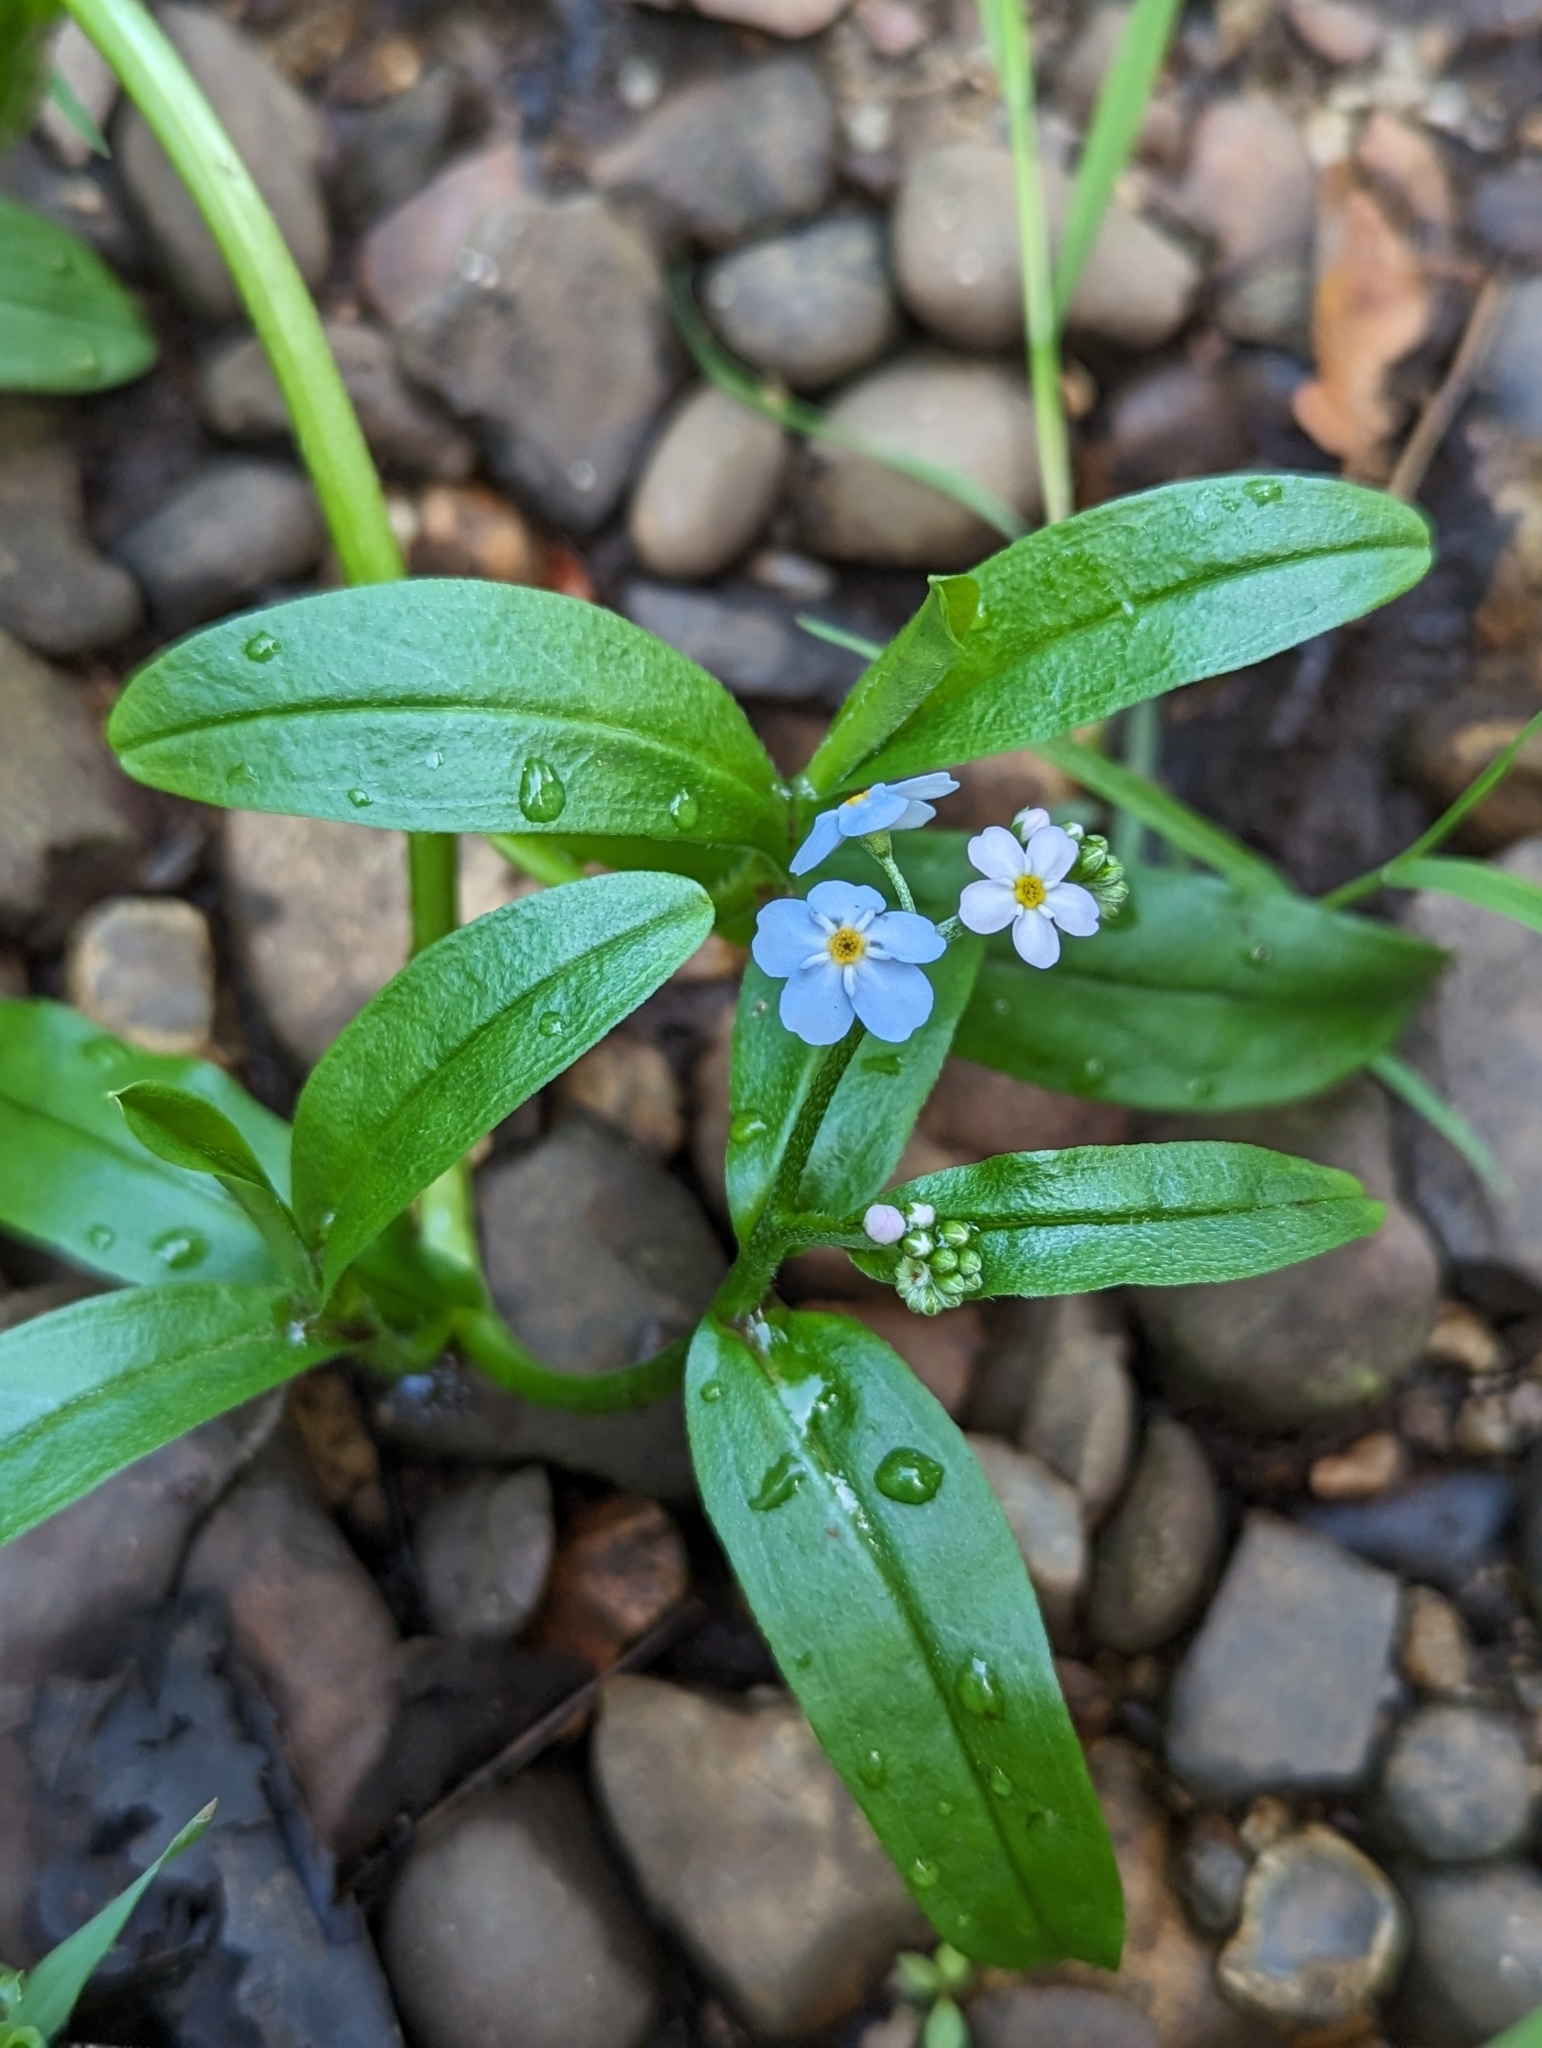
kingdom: Plantae
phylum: Tracheophyta
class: Magnoliopsida
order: Boraginales
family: Boraginaceae
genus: Myosotis
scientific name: Myosotis scorpioides
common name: Water forget-me-not
